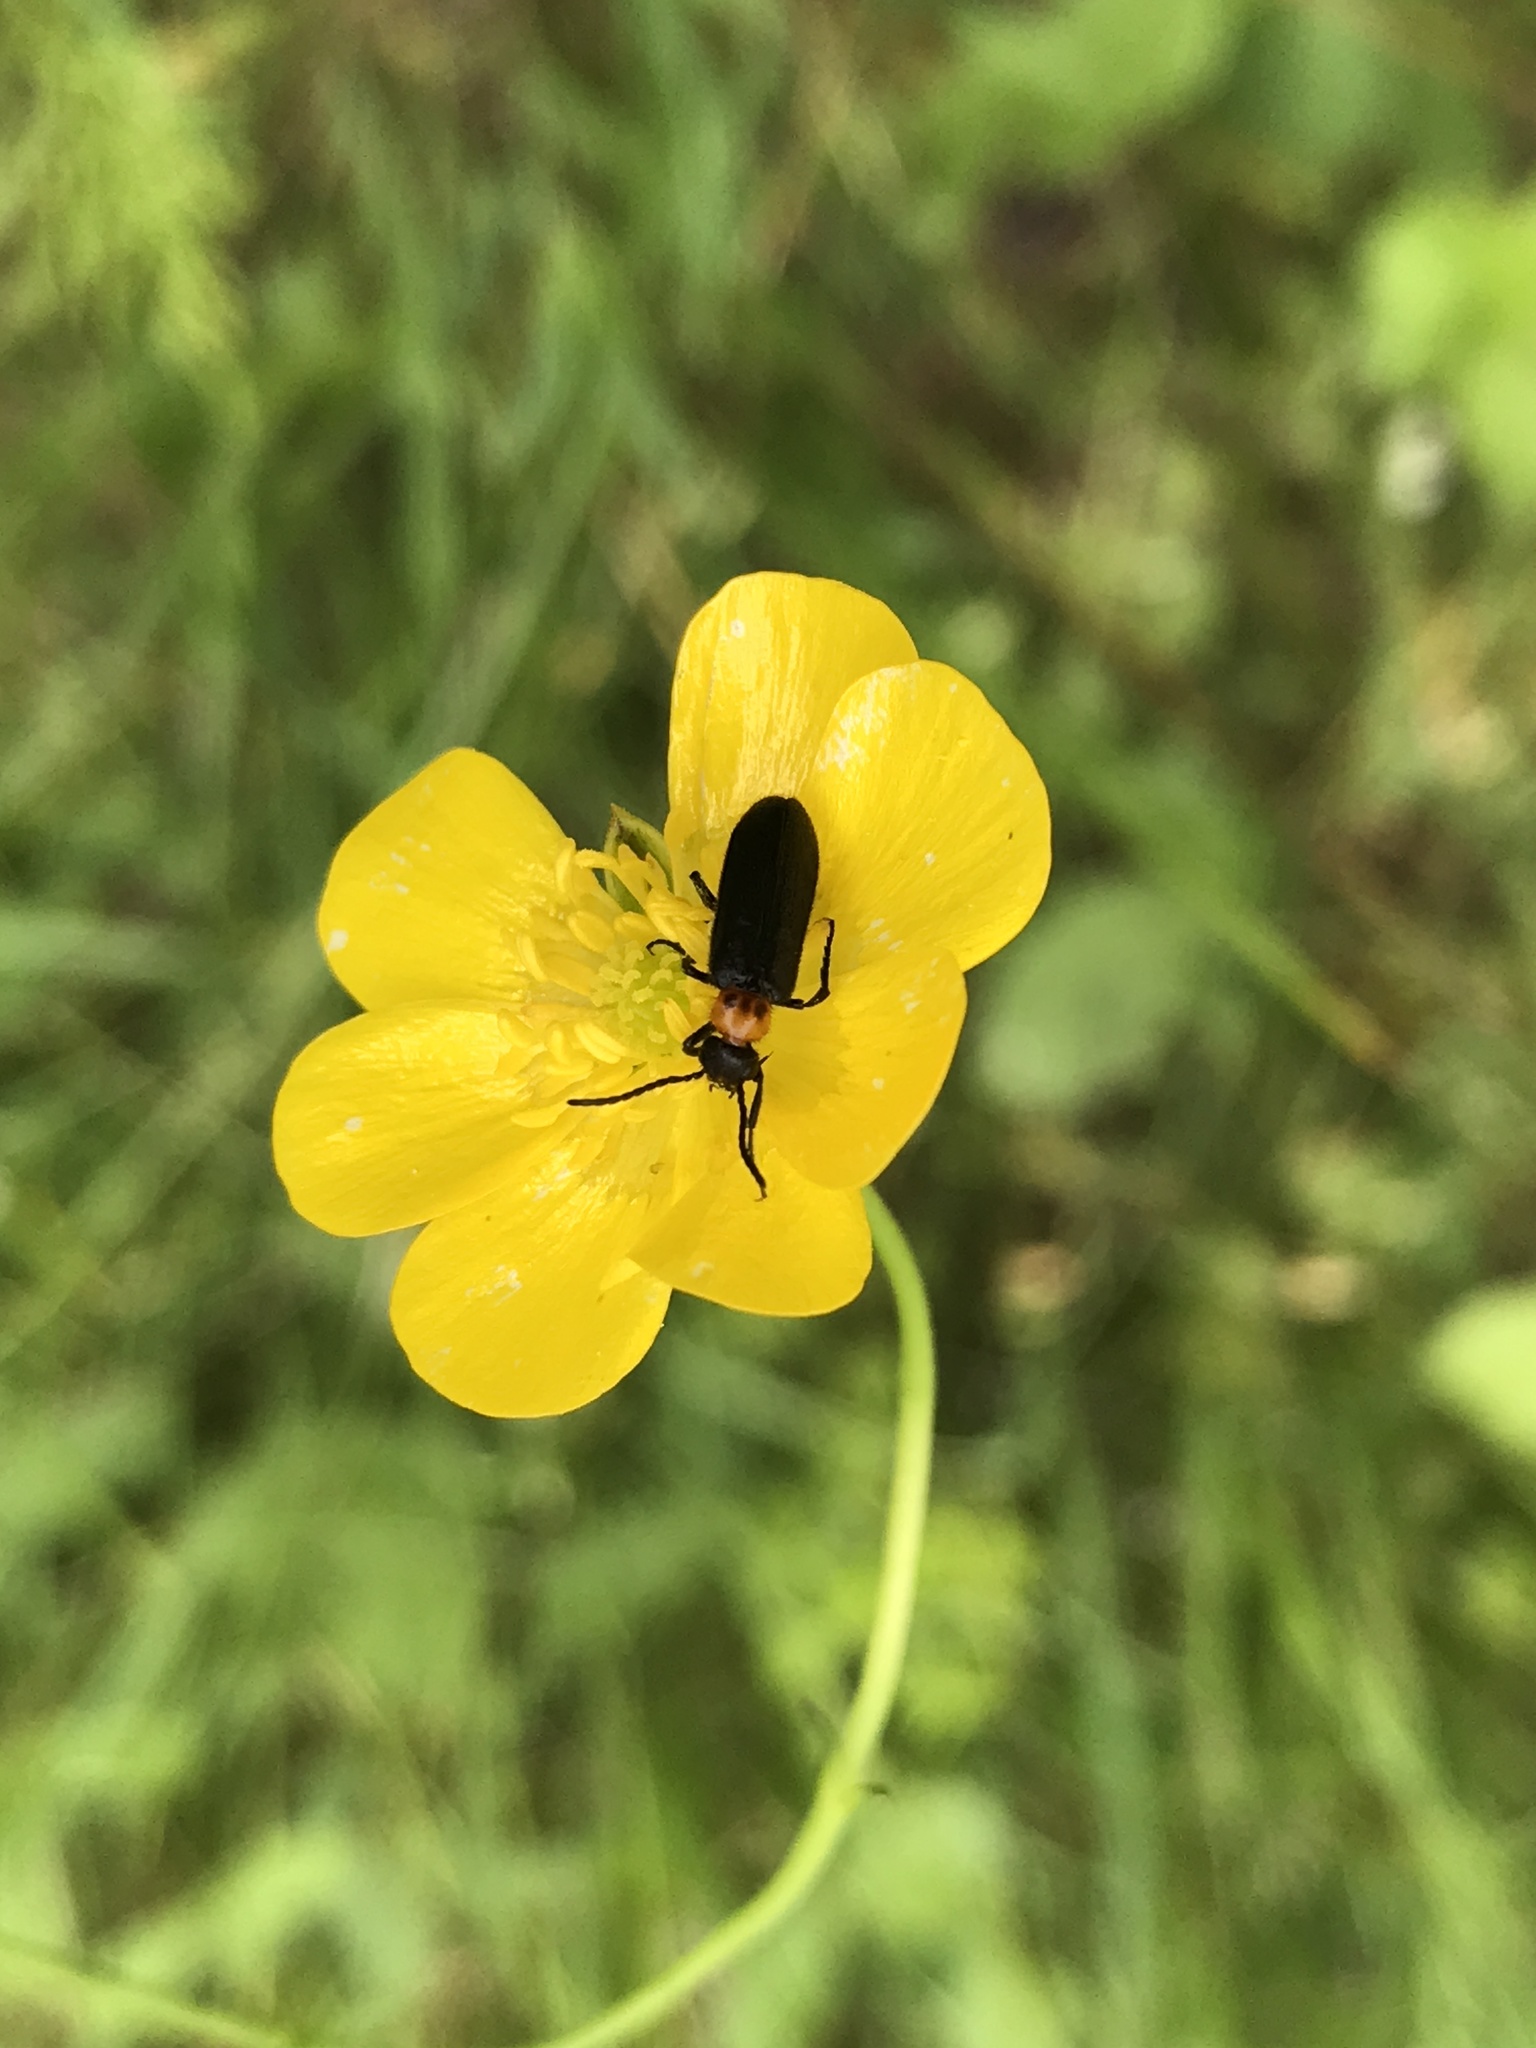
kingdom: Animalia
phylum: Arthropoda
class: Insecta
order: Coleoptera
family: Meloidae
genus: Nemognatha
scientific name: Nemognatha nemorensis
